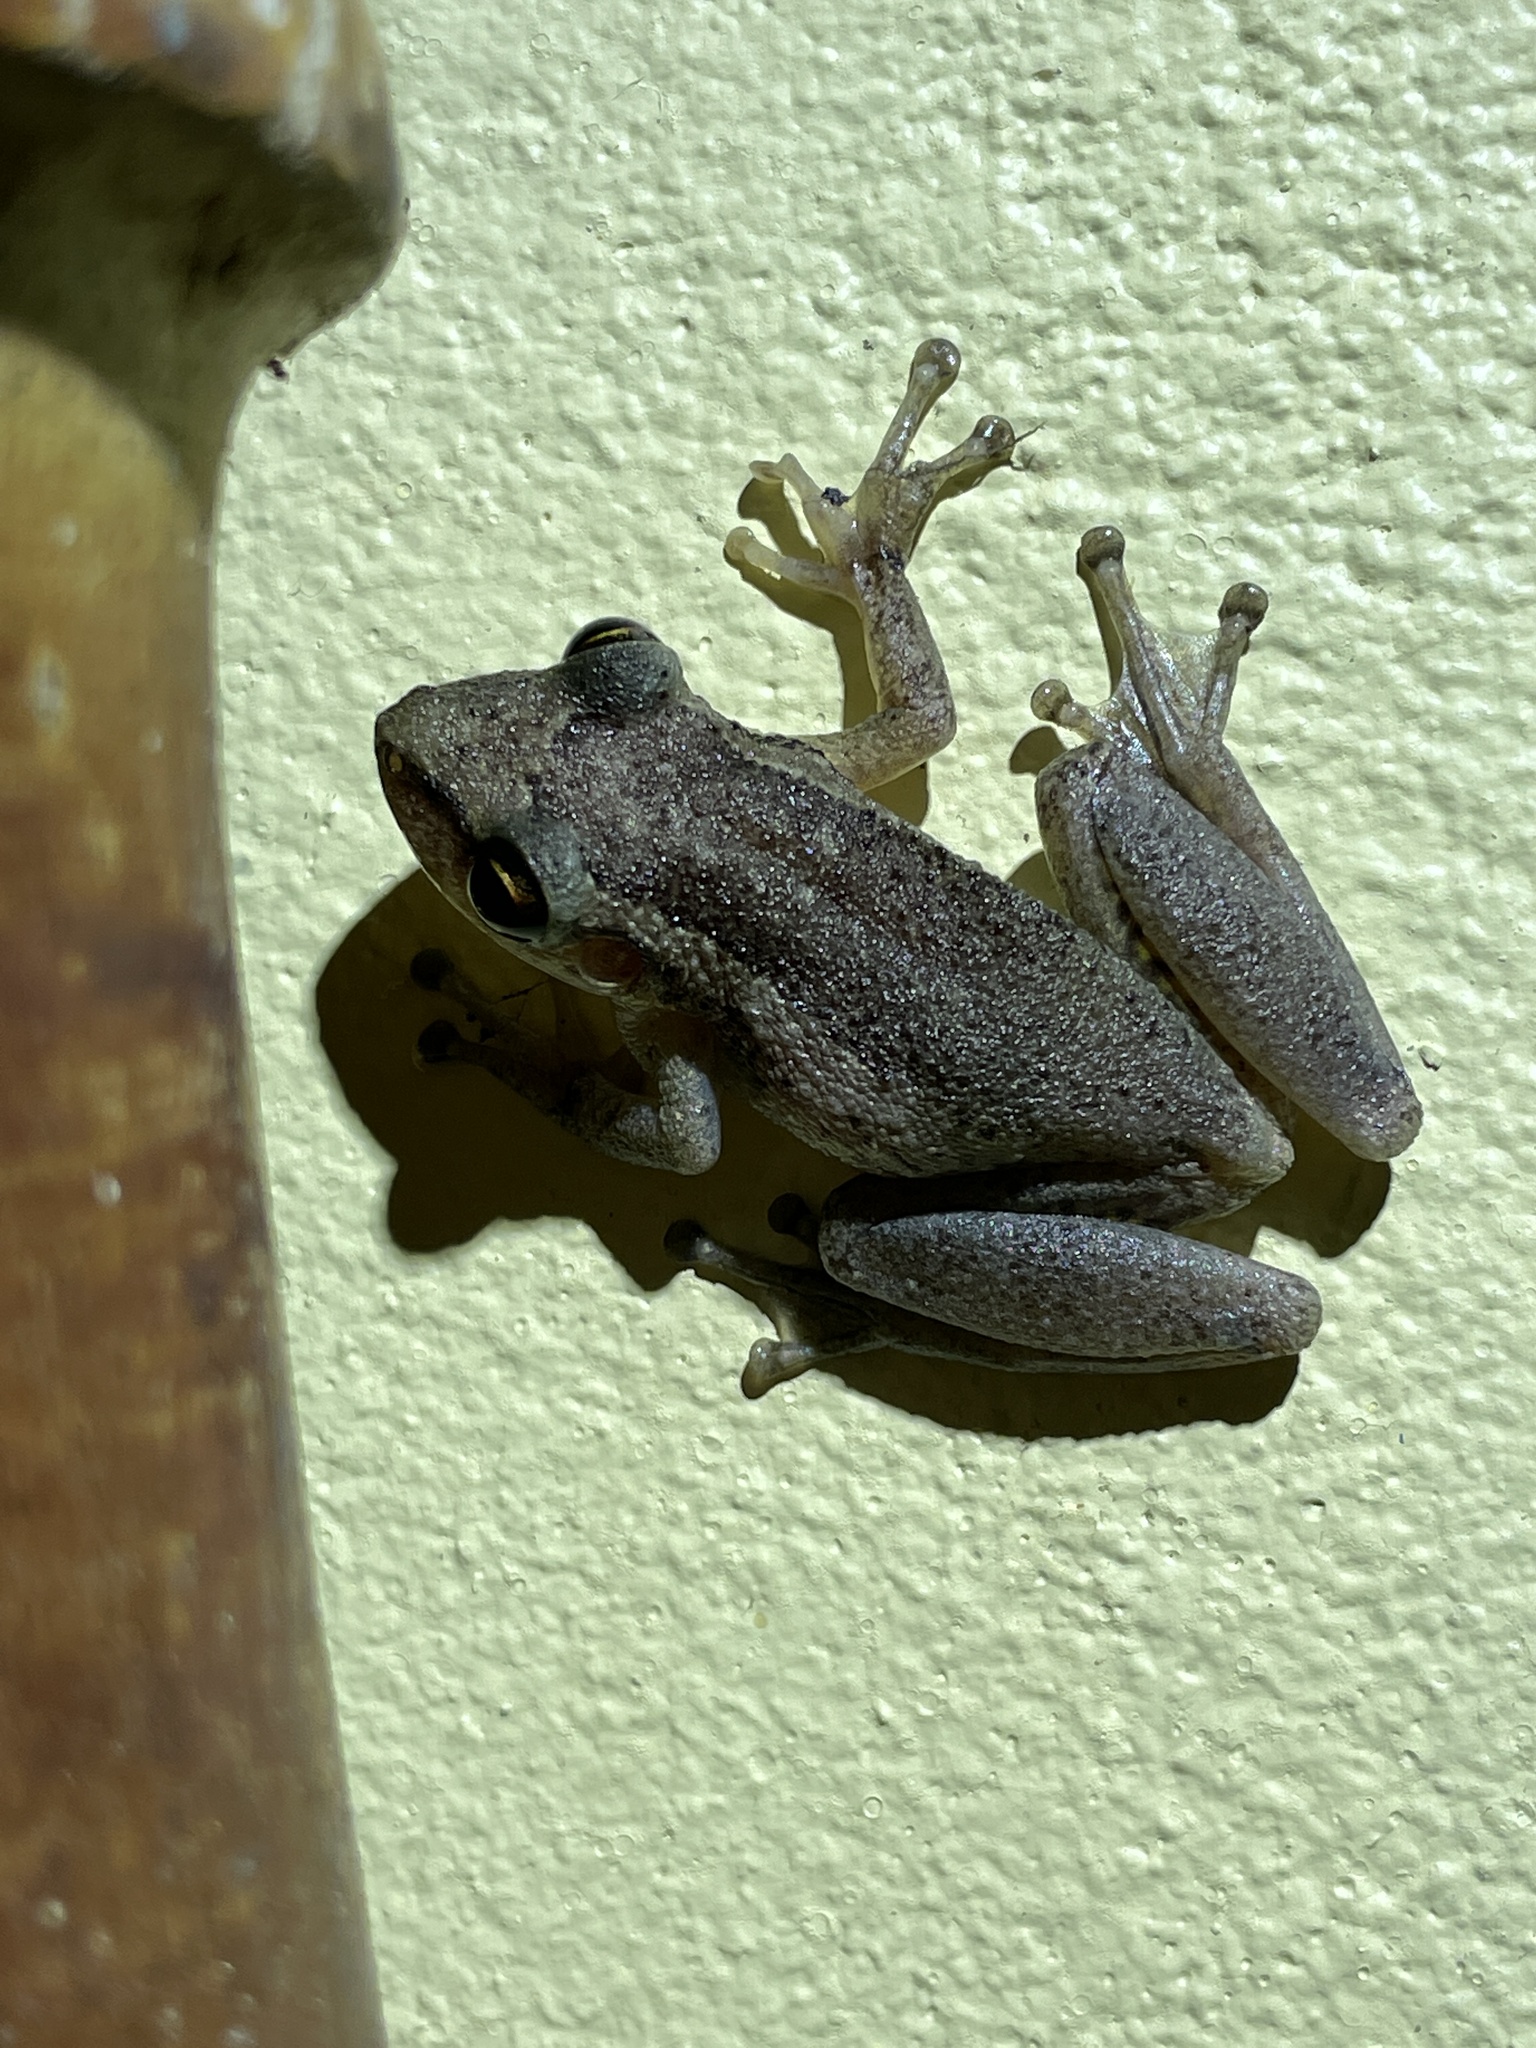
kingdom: Animalia
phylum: Chordata
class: Amphibia
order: Anura
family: Hylidae
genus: Scinax
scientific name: Scinax ruber
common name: Red snouted treefrog
